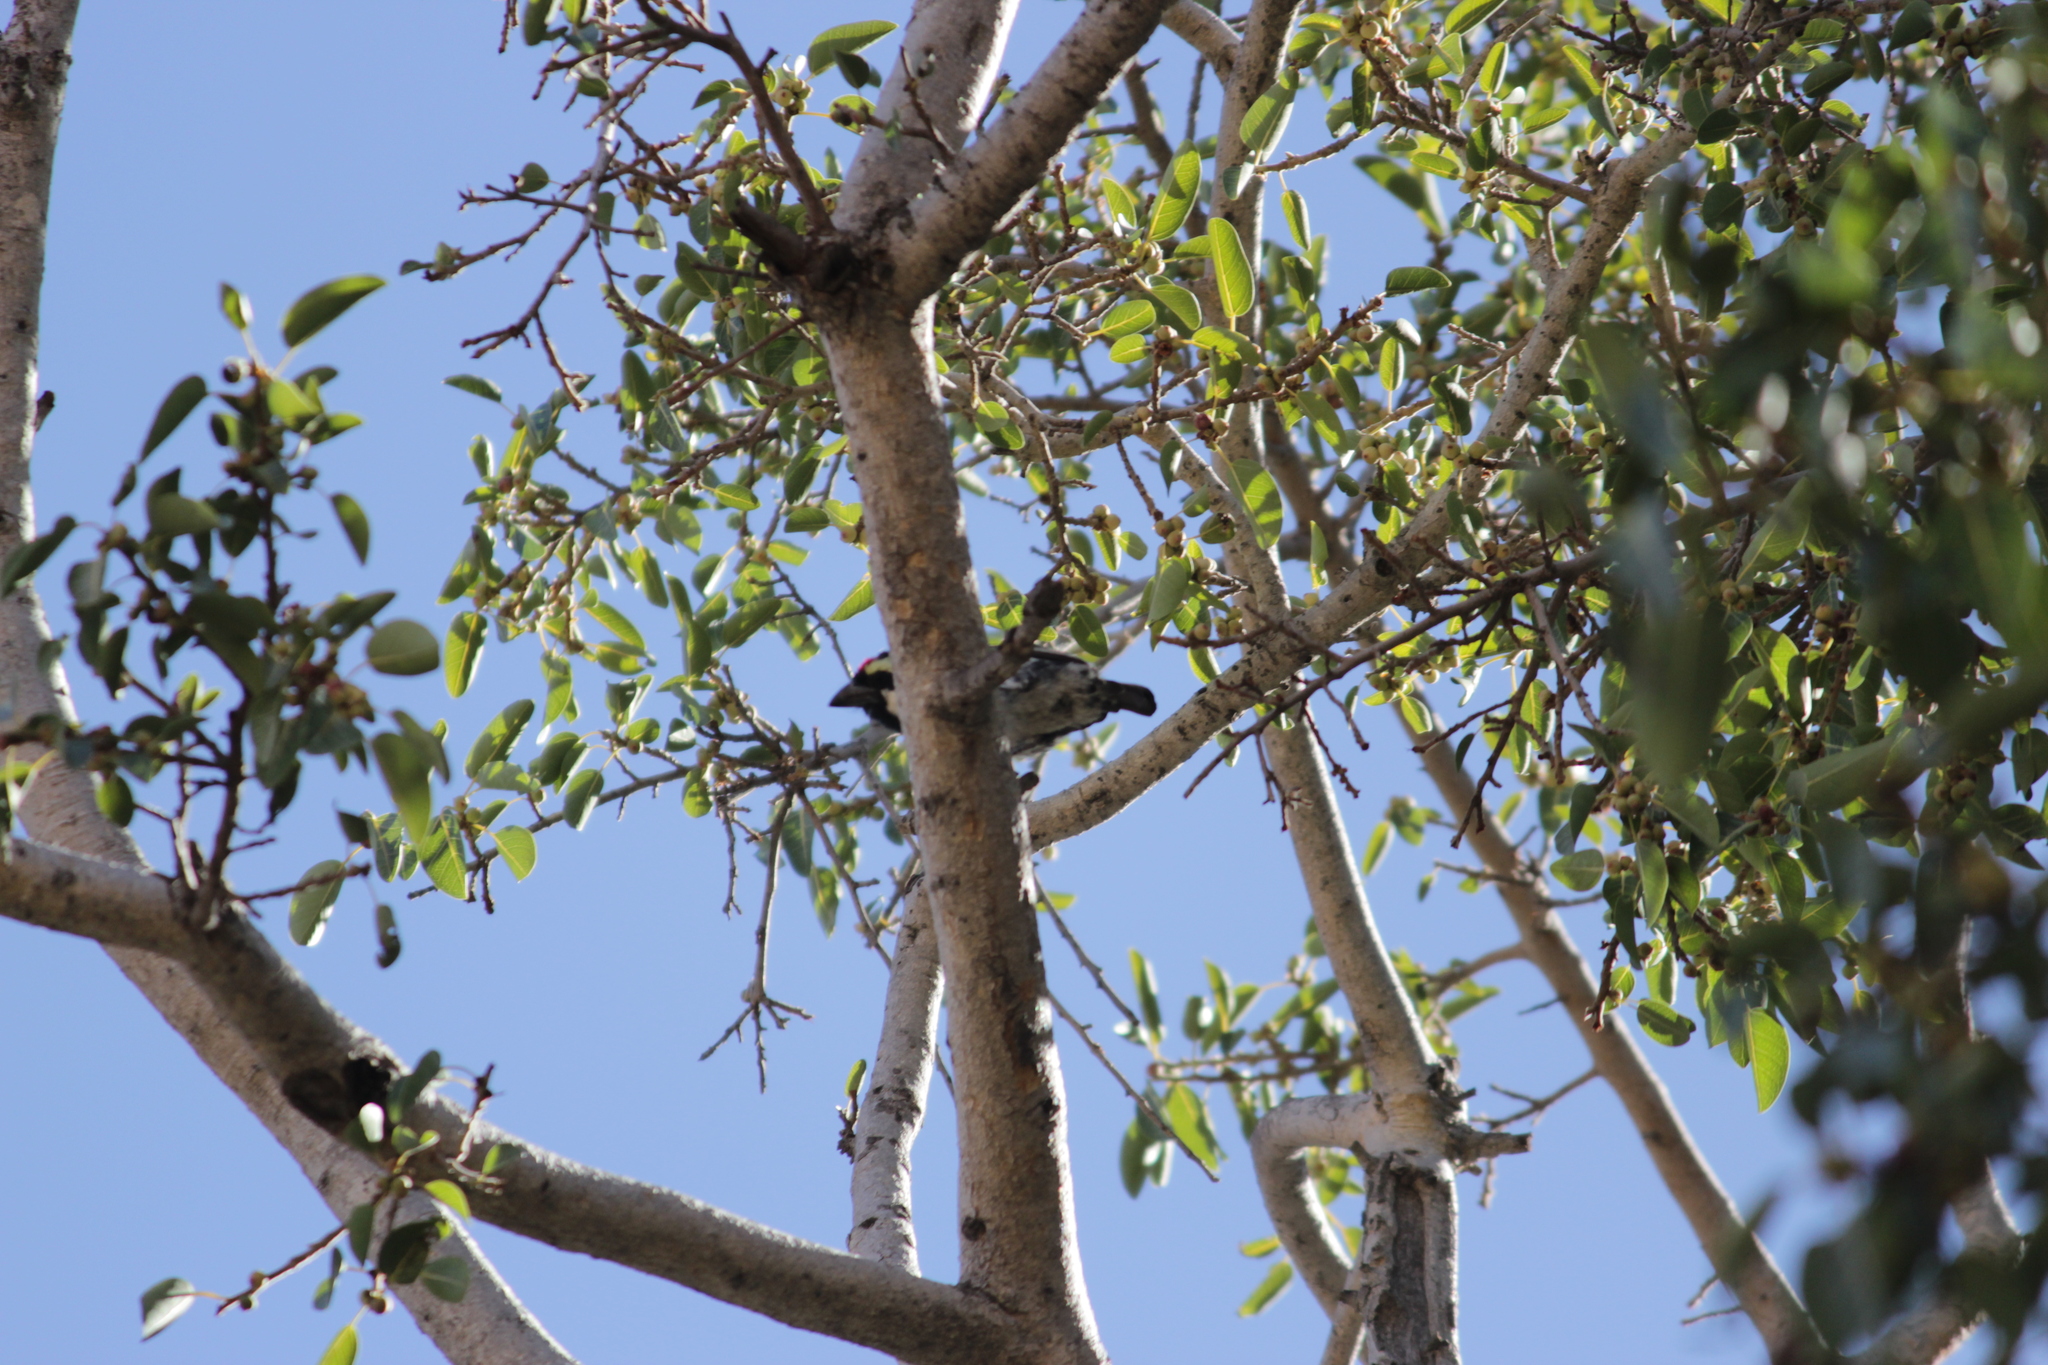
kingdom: Animalia
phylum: Chordata
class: Aves
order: Piciformes
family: Lybiidae
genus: Tricholaema
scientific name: Tricholaema leucomelas
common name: Acacia pied barbet
